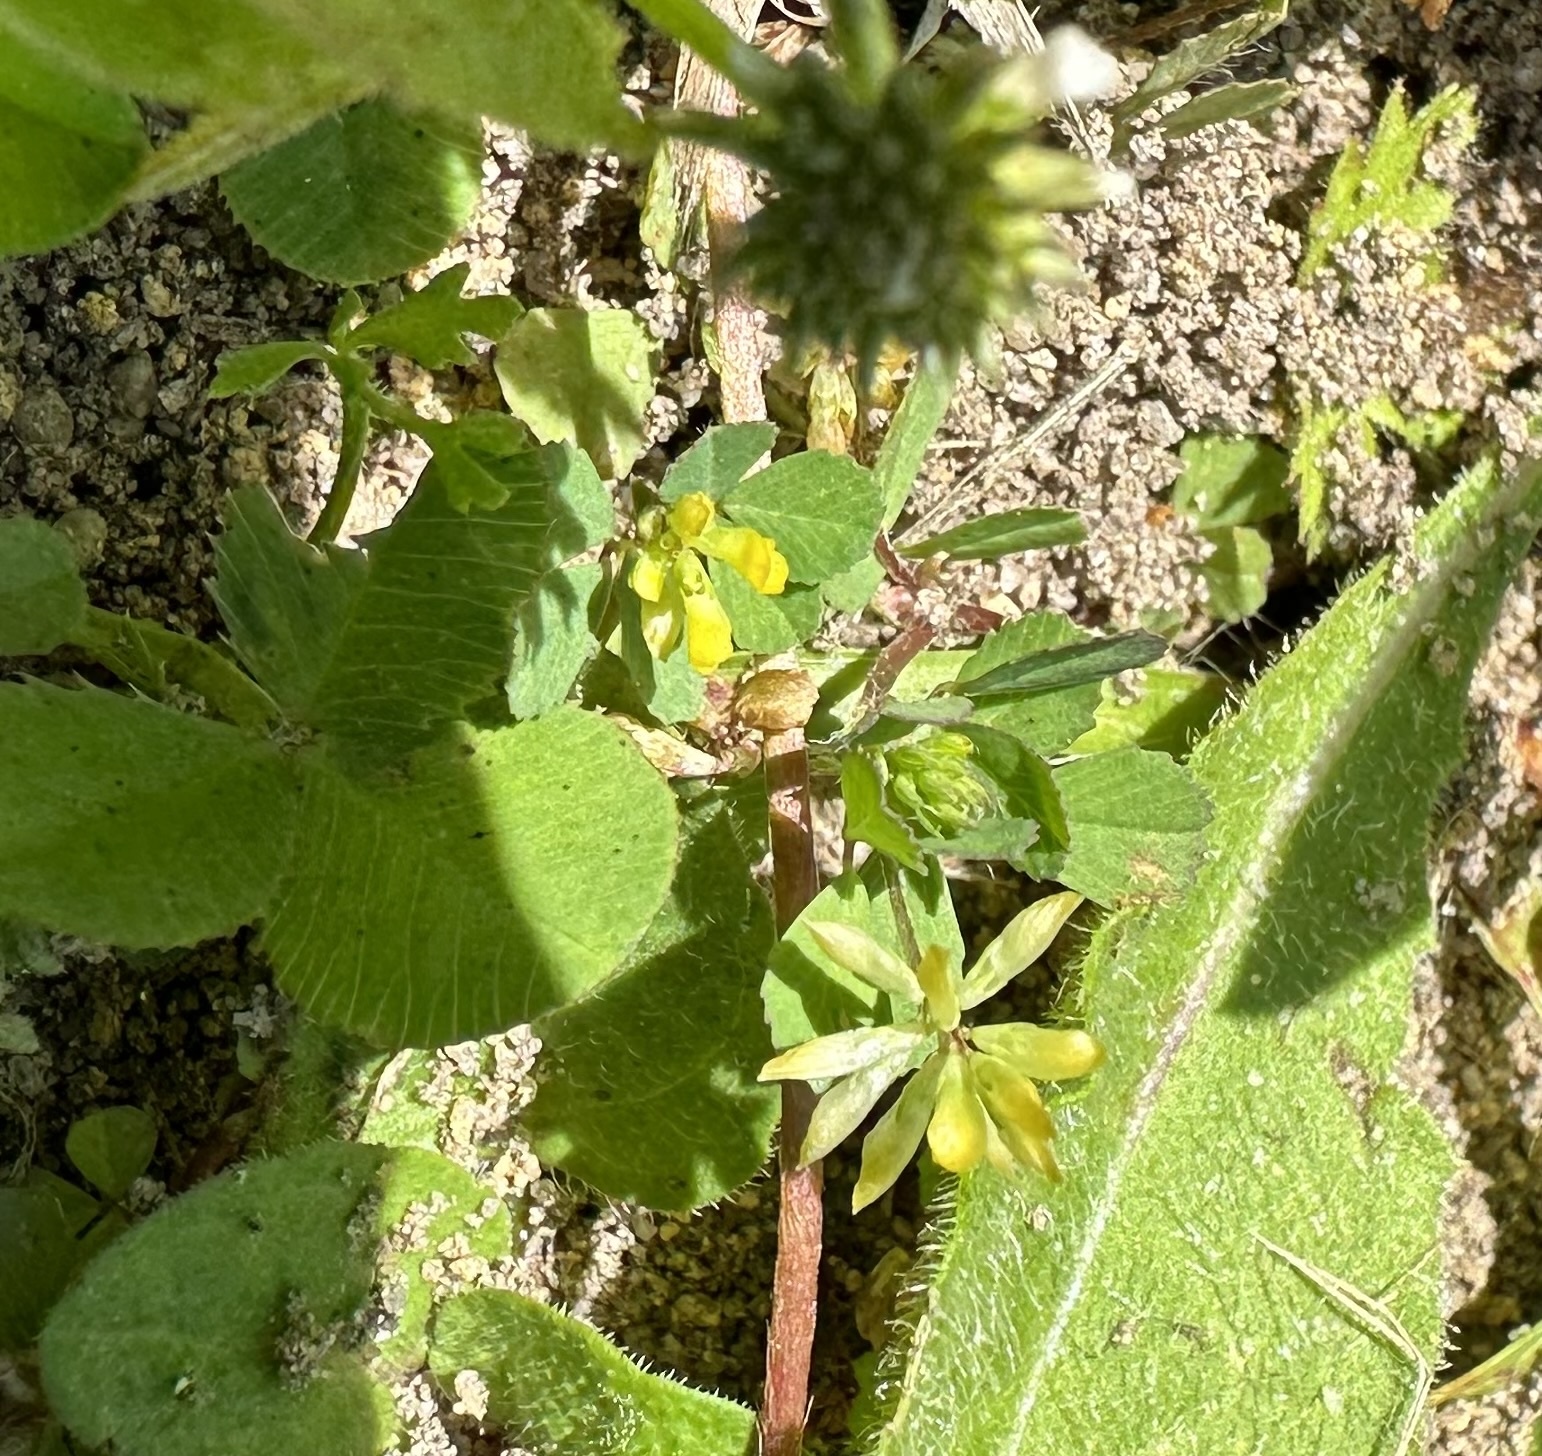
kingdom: Plantae
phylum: Tracheophyta
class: Magnoliopsida
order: Fabales
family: Fabaceae
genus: Trifolium
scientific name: Trifolium dubium
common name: Suckling clover
